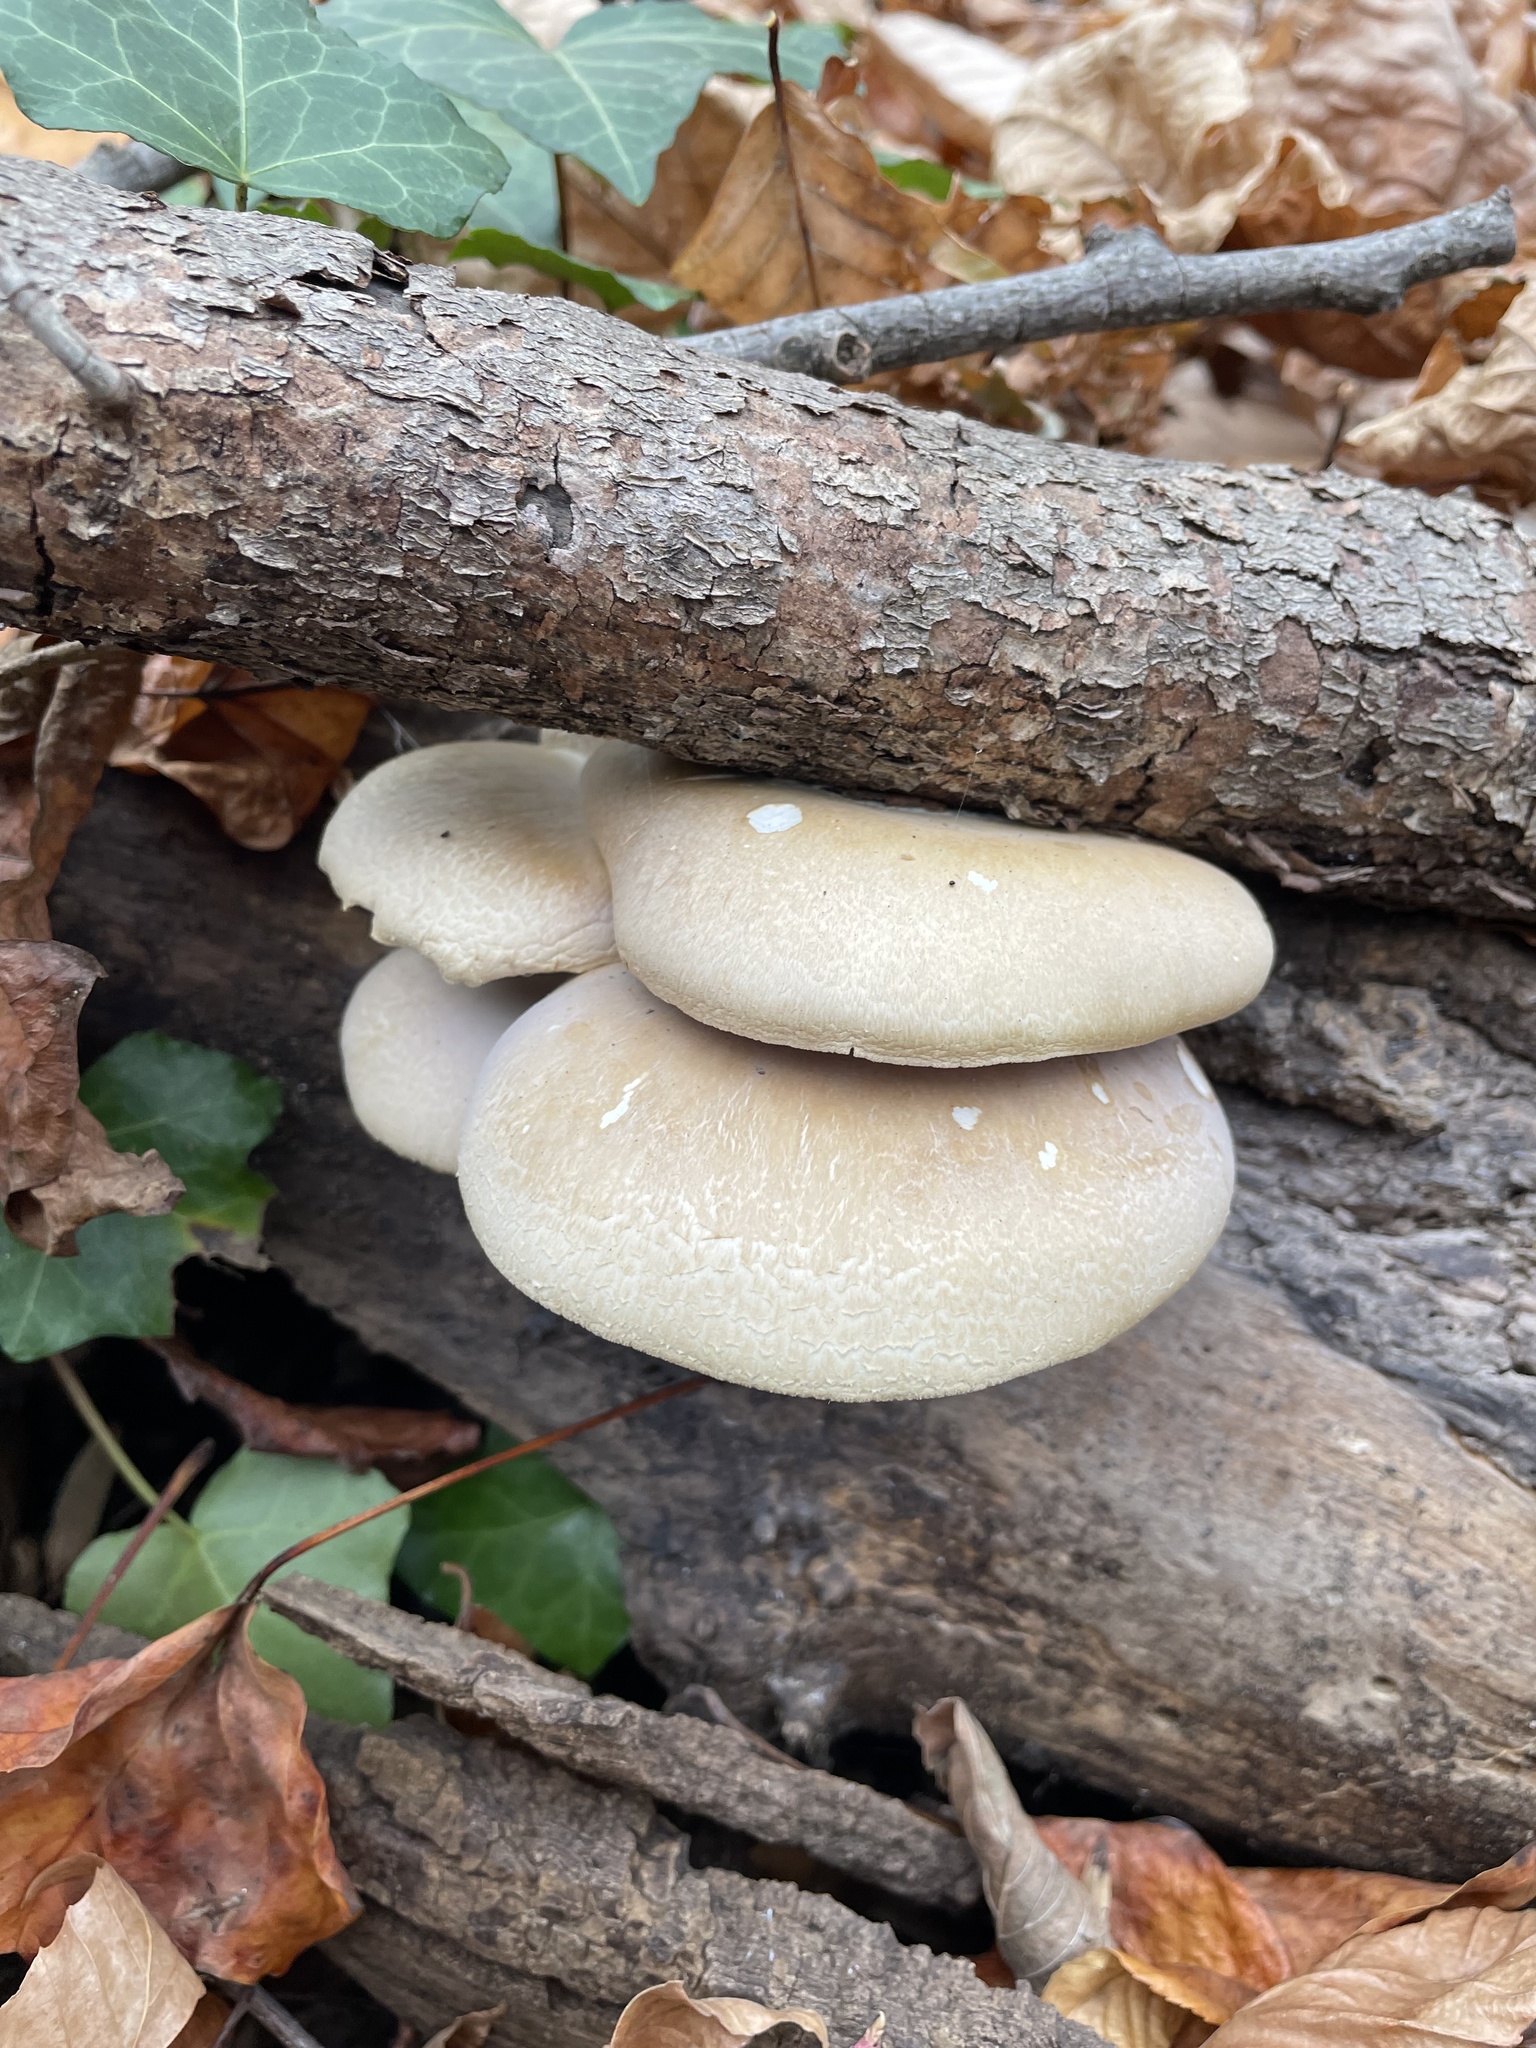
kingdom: Fungi
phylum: Basidiomycota
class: Agaricomycetes
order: Agaricales
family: Pleurotaceae
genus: Pleurotus
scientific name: Pleurotus ostreatus
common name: Oyster mushroom
